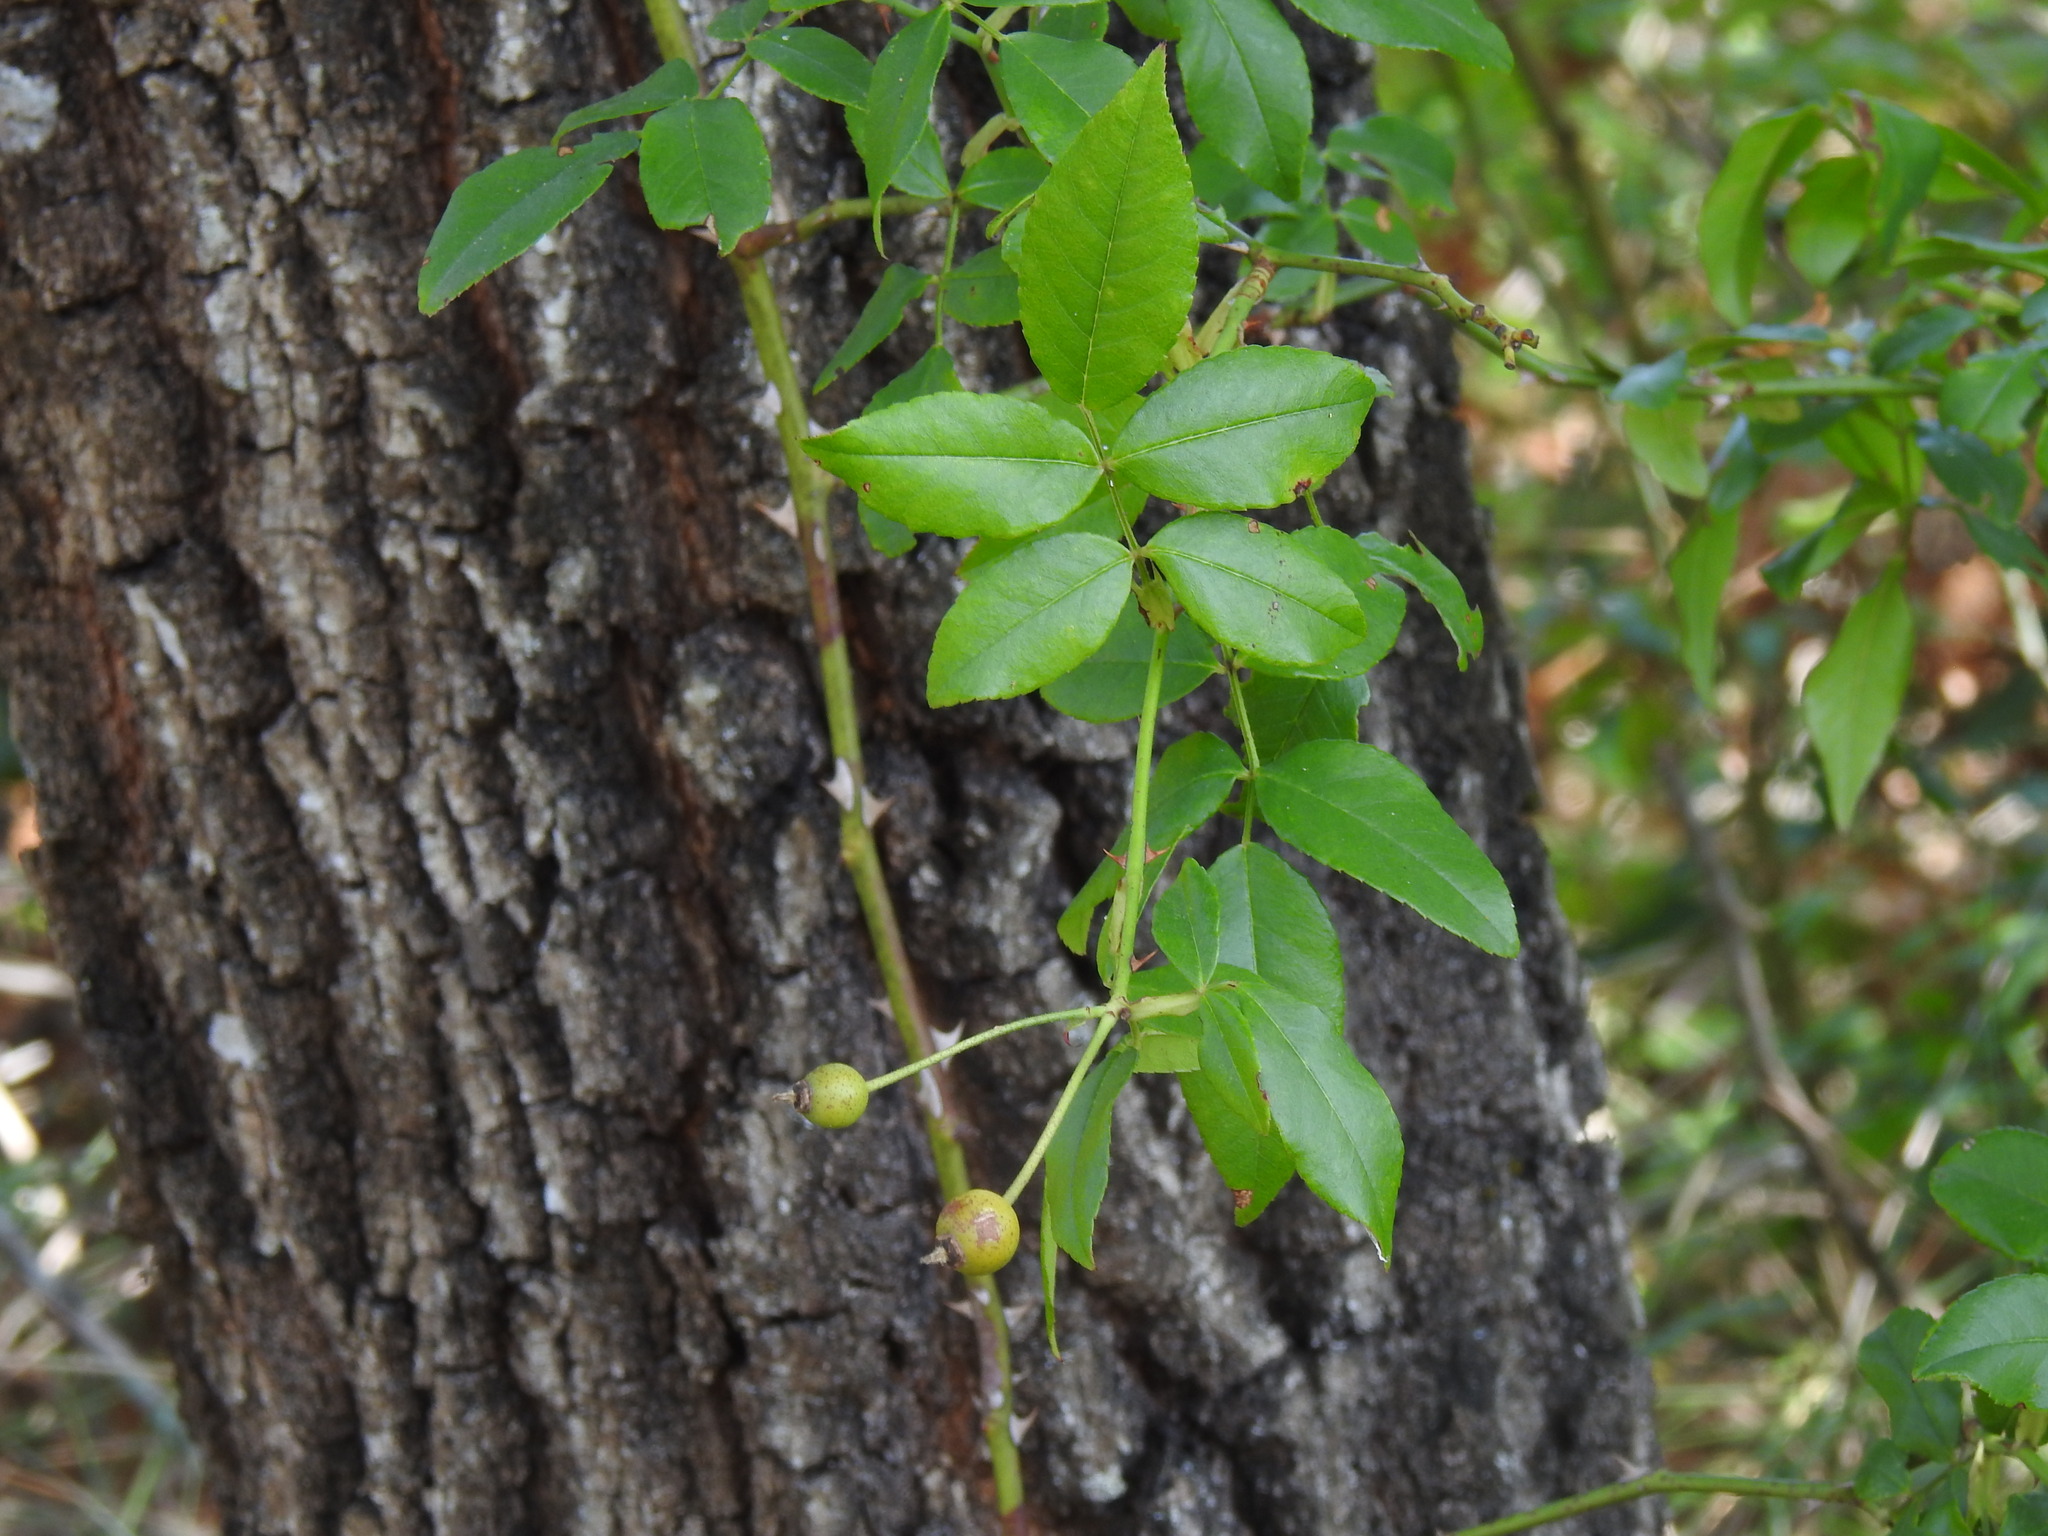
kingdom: Plantae
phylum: Tracheophyta
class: Magnoliopsida
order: Rosales
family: Rosaceae
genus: Rosa
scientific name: Rosa sempervirens
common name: Evergreen rose
